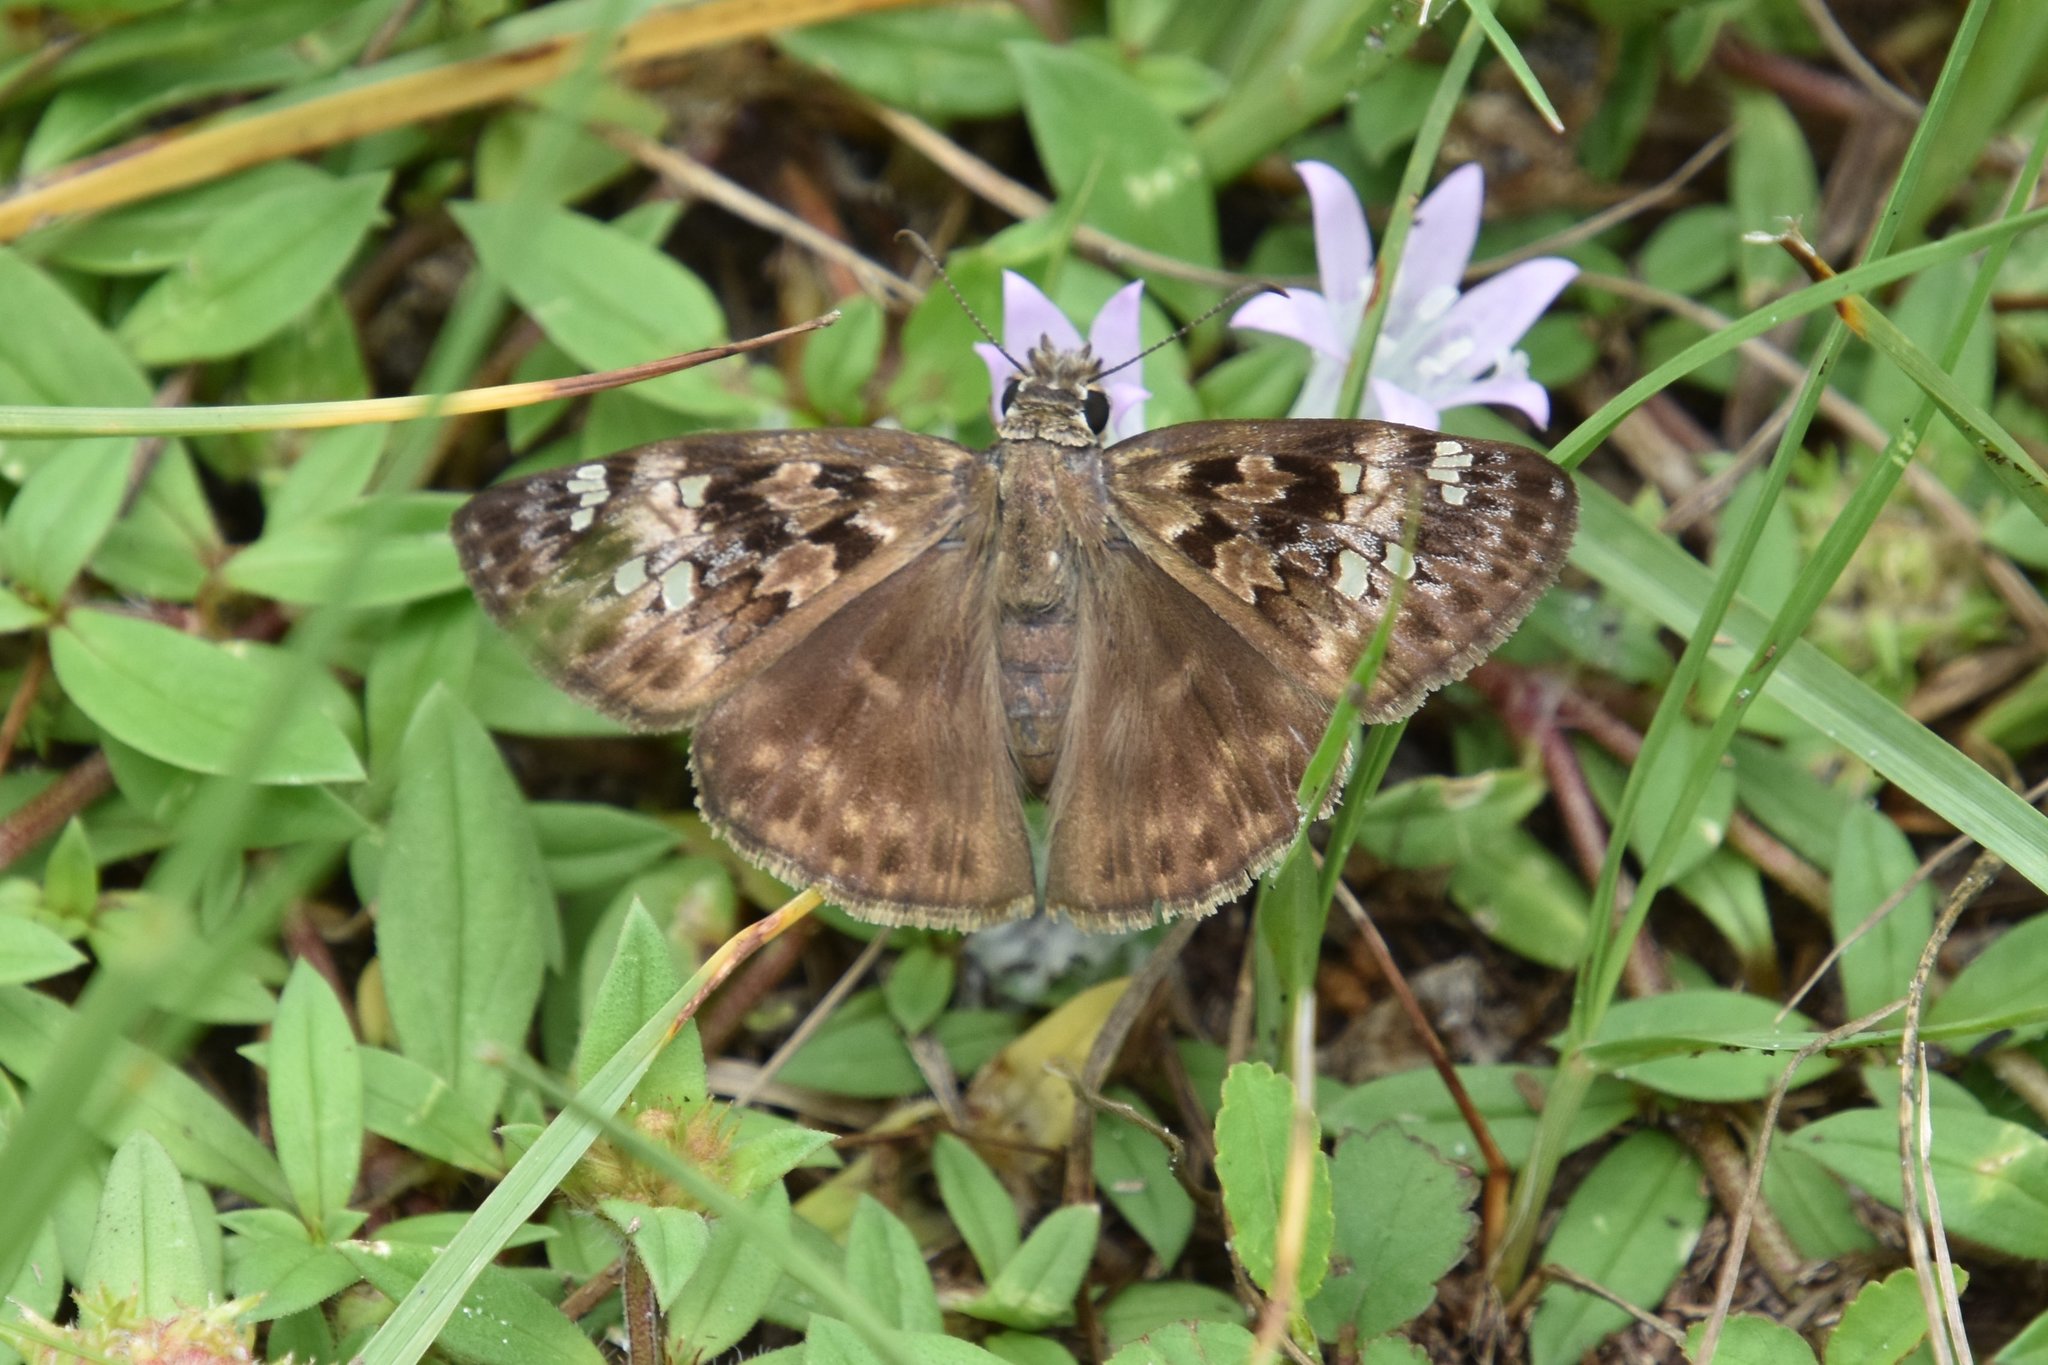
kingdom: Animalia
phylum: Arthropoda
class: Insecta
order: Lepidoptera
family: Hesperiidae
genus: Erynnis
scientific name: Erynnis horatius
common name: Horace's duskywing
